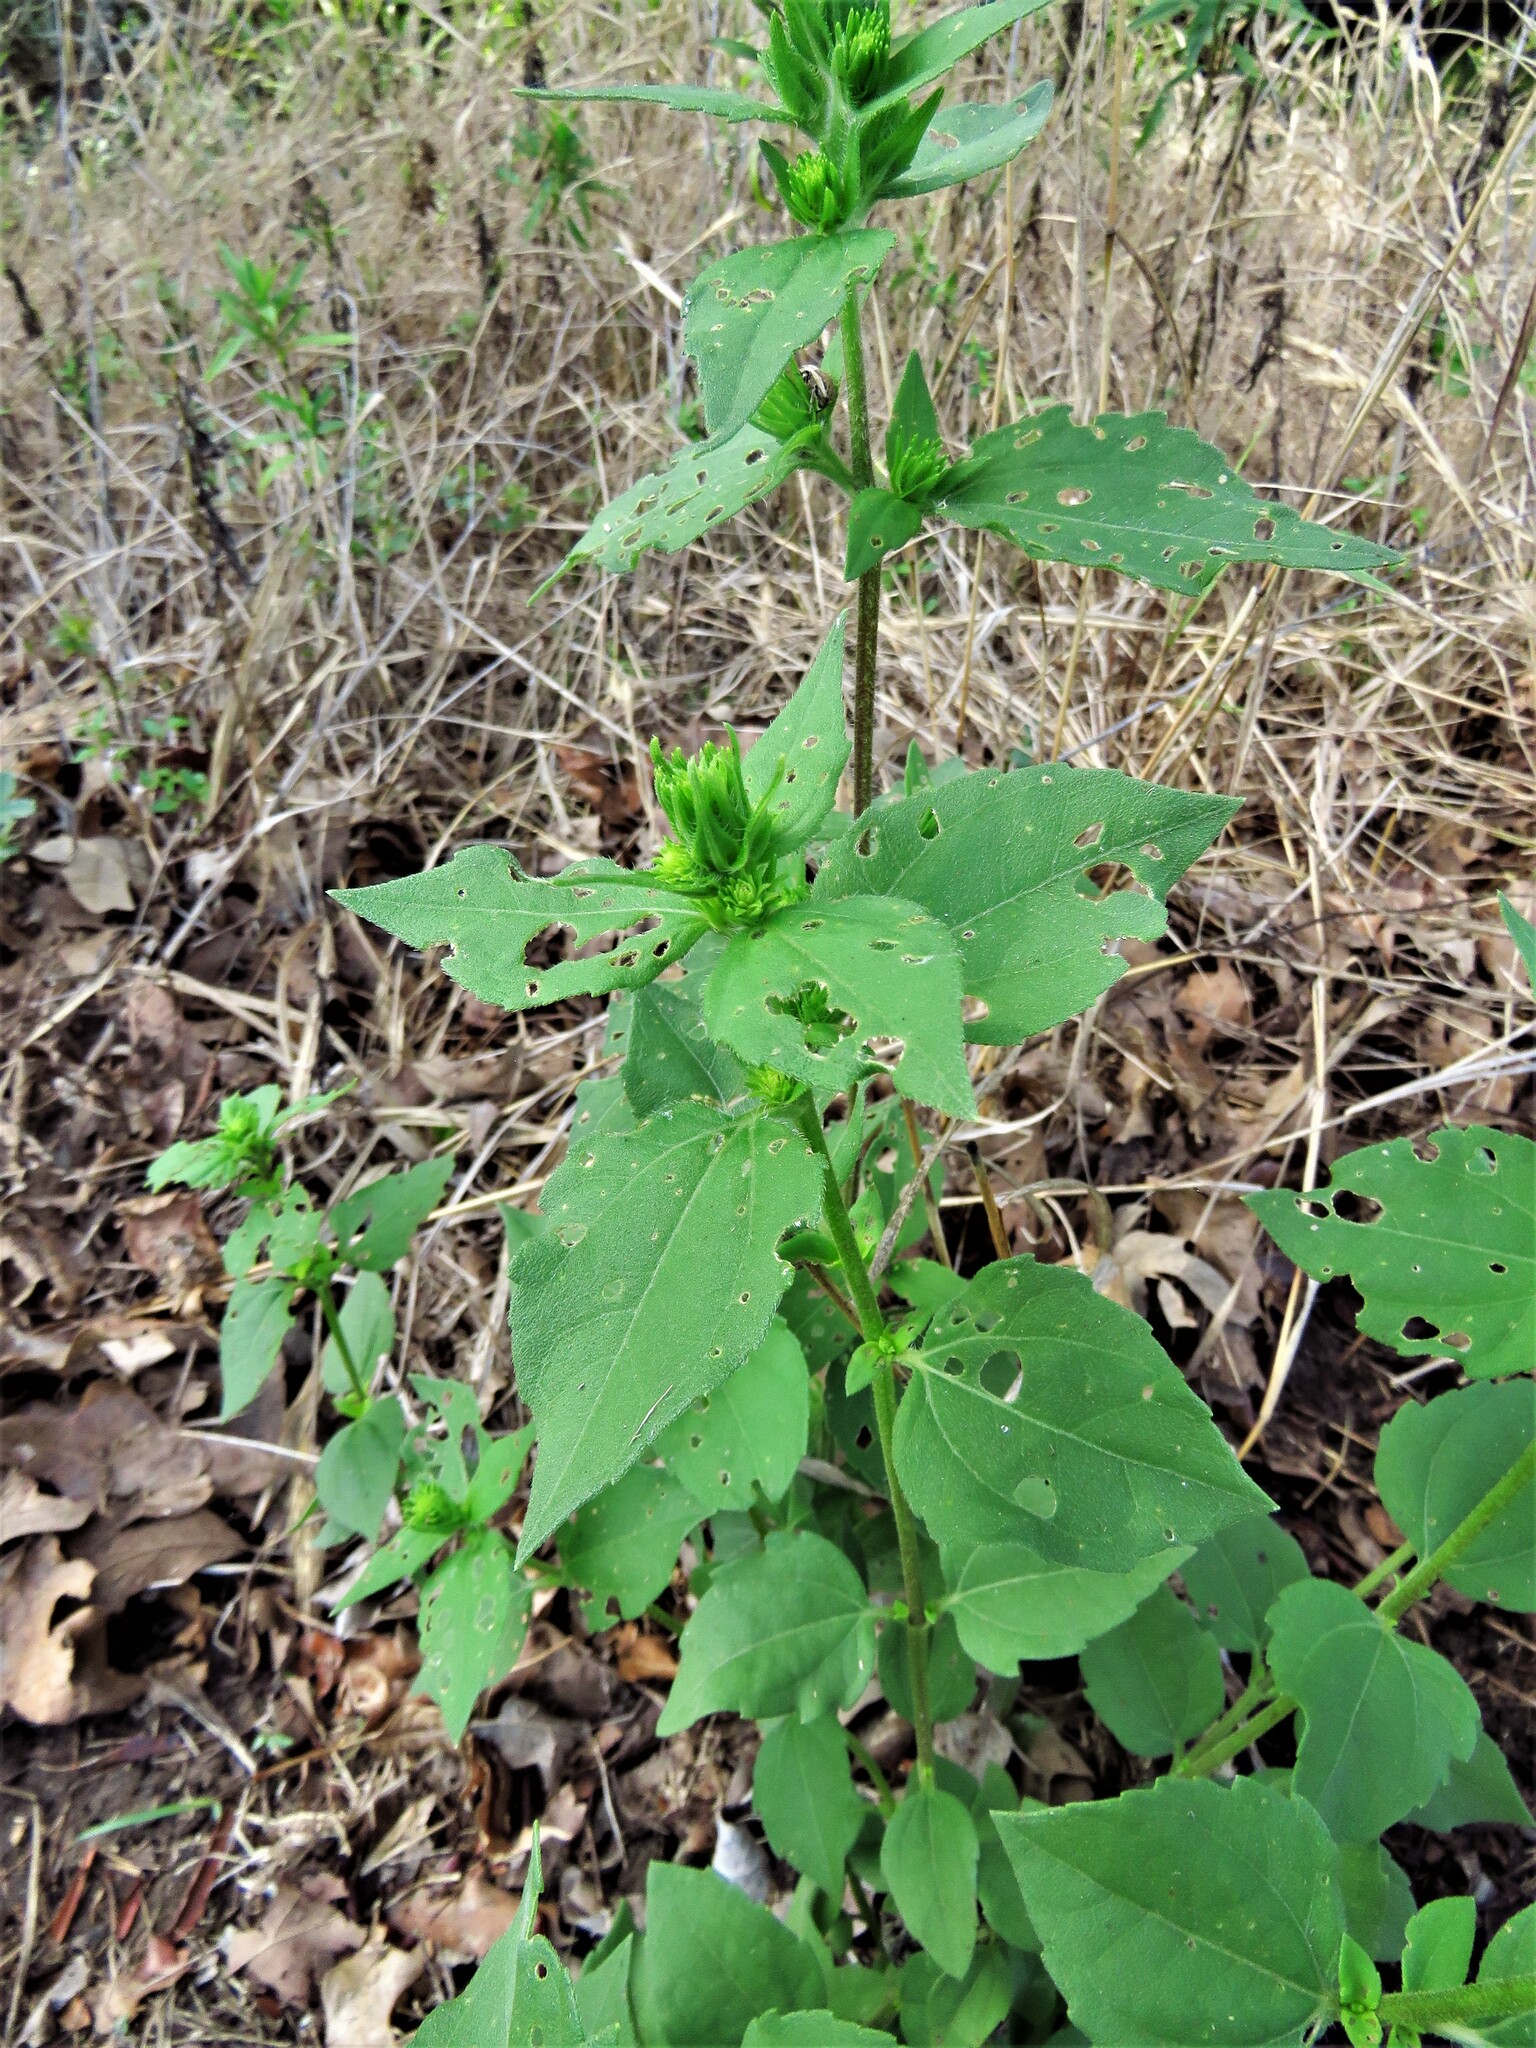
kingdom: Plantae
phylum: Tracheophyta
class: Magnoliopsida
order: Asterales
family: Asteraceae
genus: Iva
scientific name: Iva annua
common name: Marsh-elder
